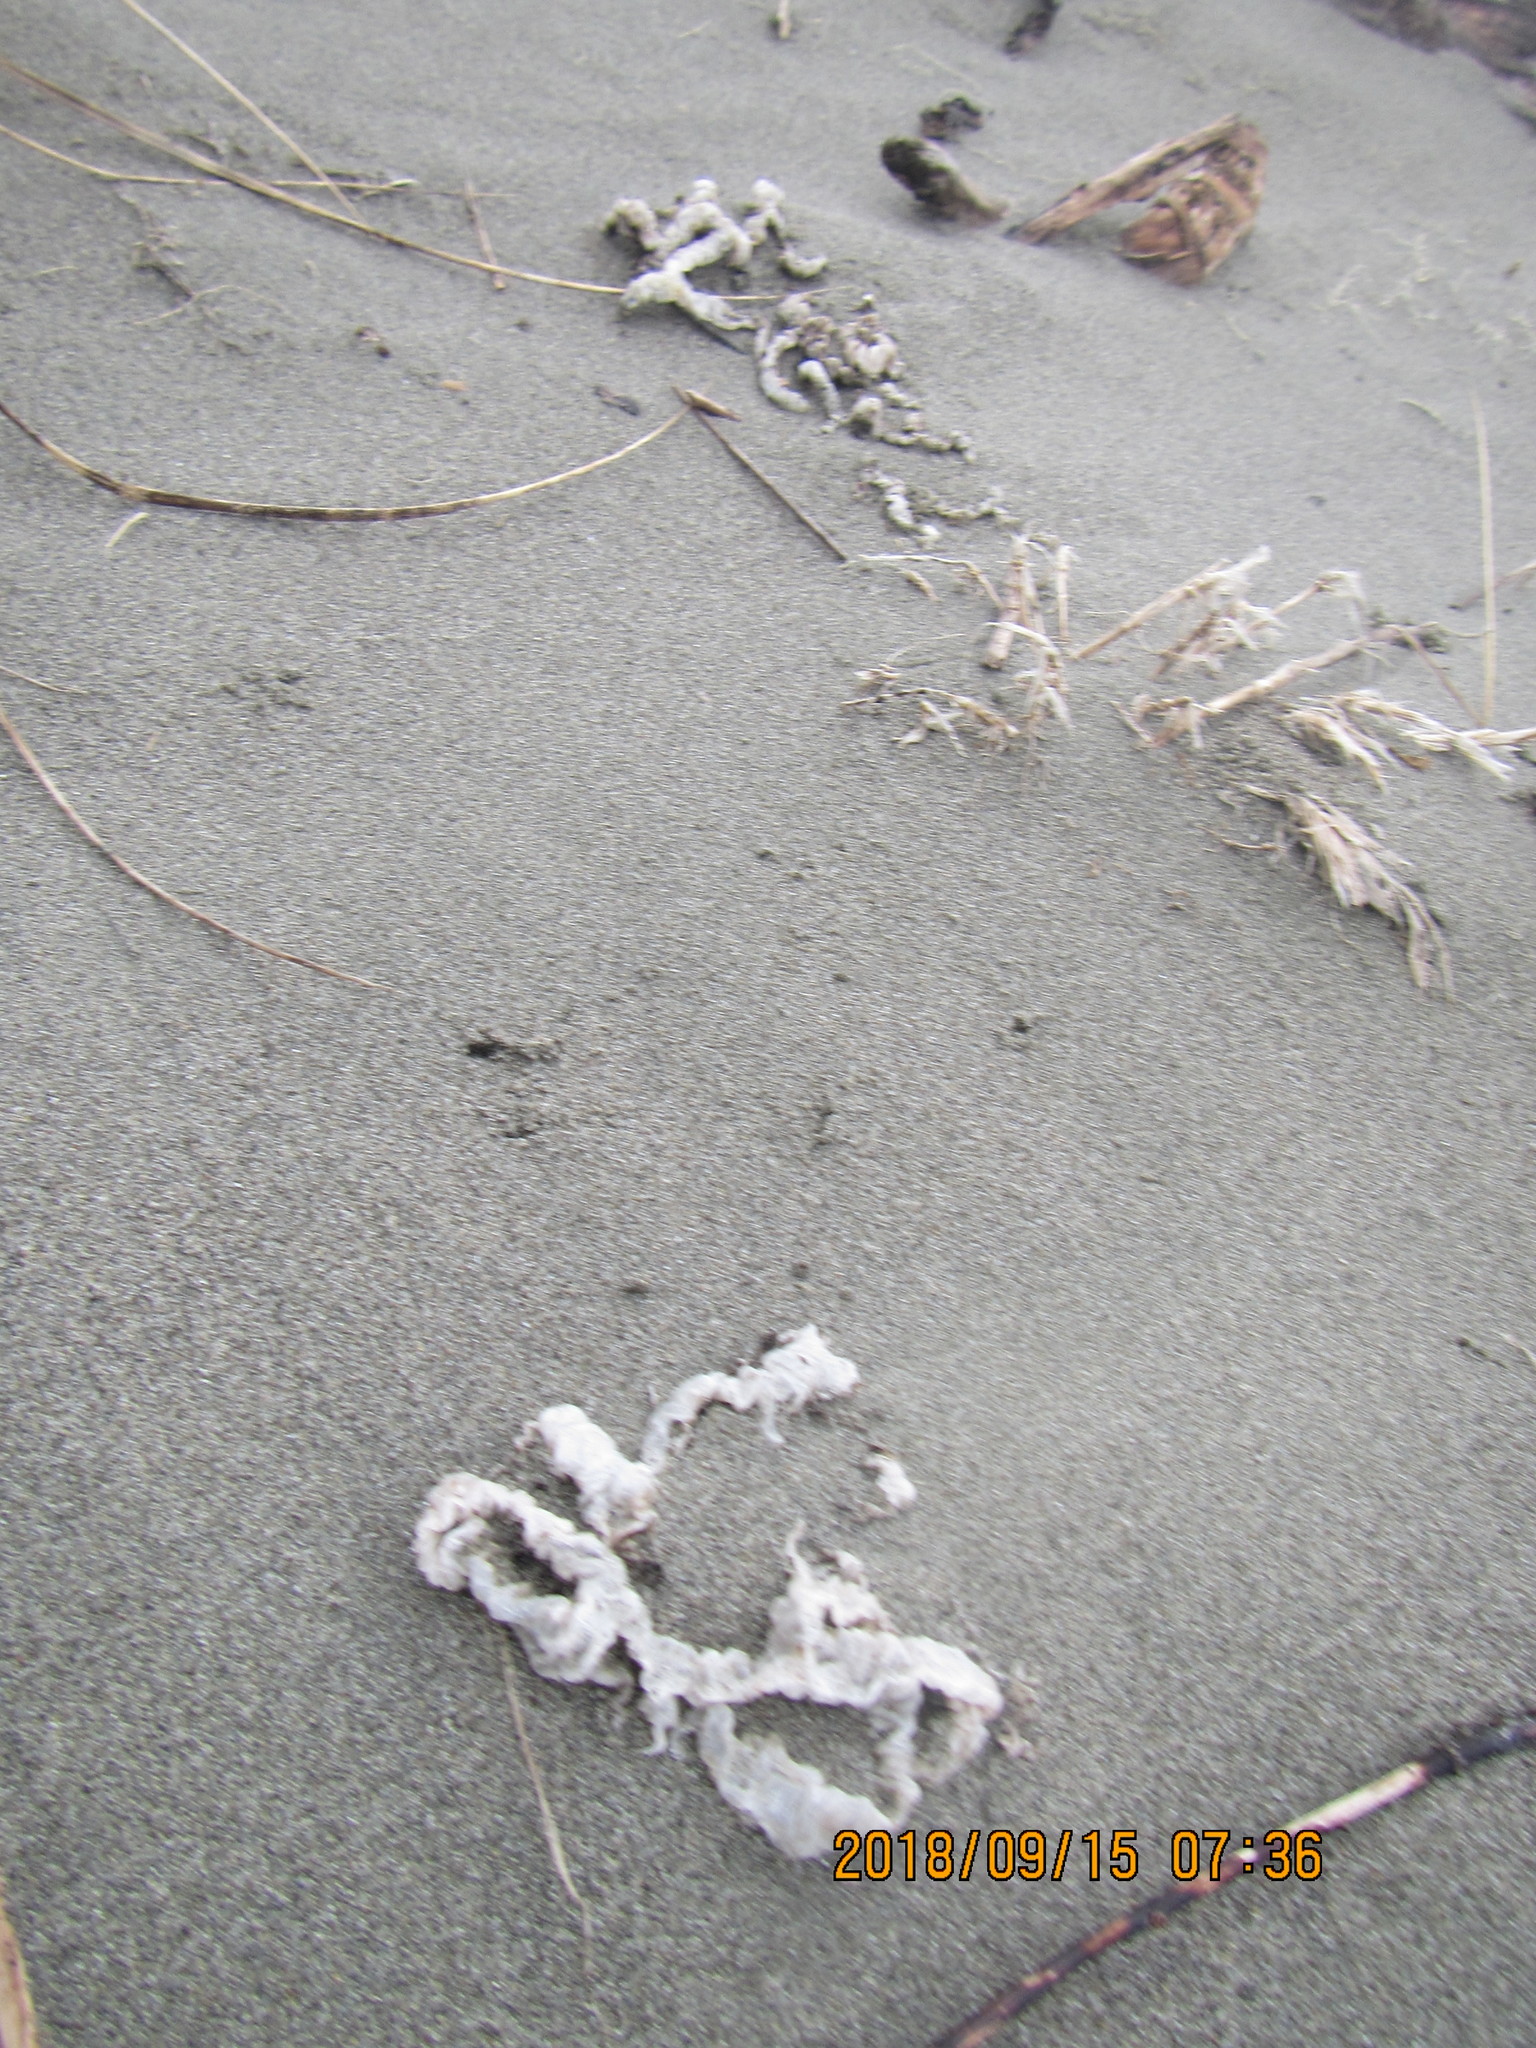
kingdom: Fungi
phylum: Basidiomycota
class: Agaricomycetes
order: Phallales
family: Phallaceae
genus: Ileodictyon
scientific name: Ileodictyon cibarium
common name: Basket fungus
